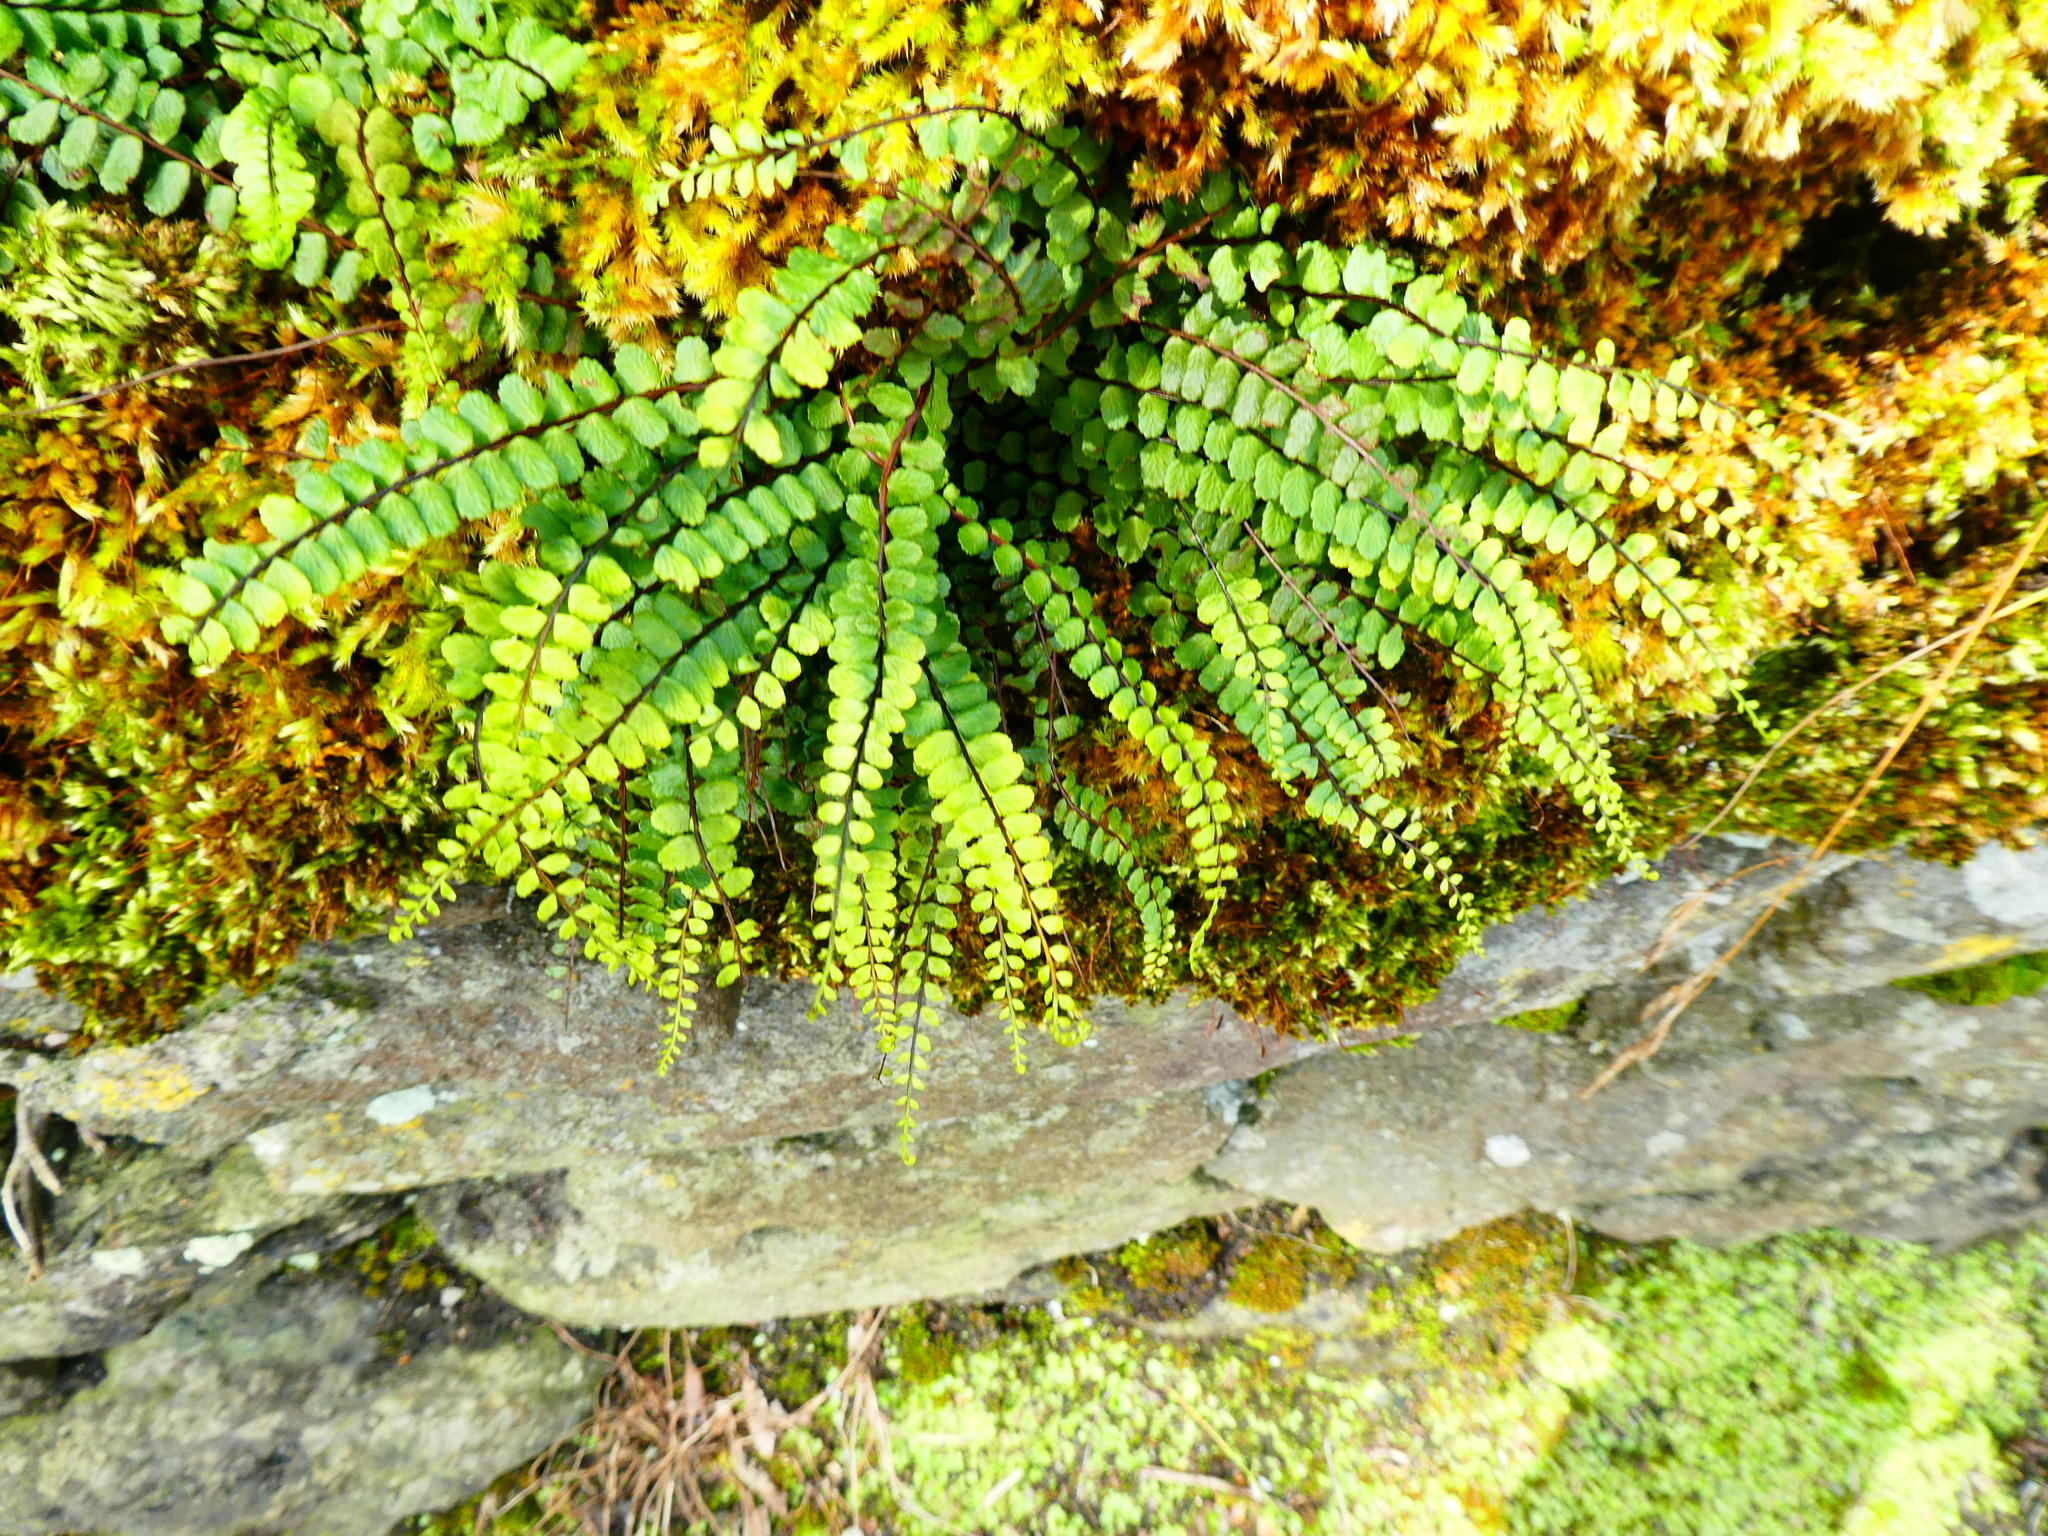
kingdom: Plantae
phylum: Tracheophyta
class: Polypodiopsida
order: Polypodiales
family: Aspleniaceae
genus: Asplenium
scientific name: Asplenium trichomanes
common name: Maidenhair spleenwort
